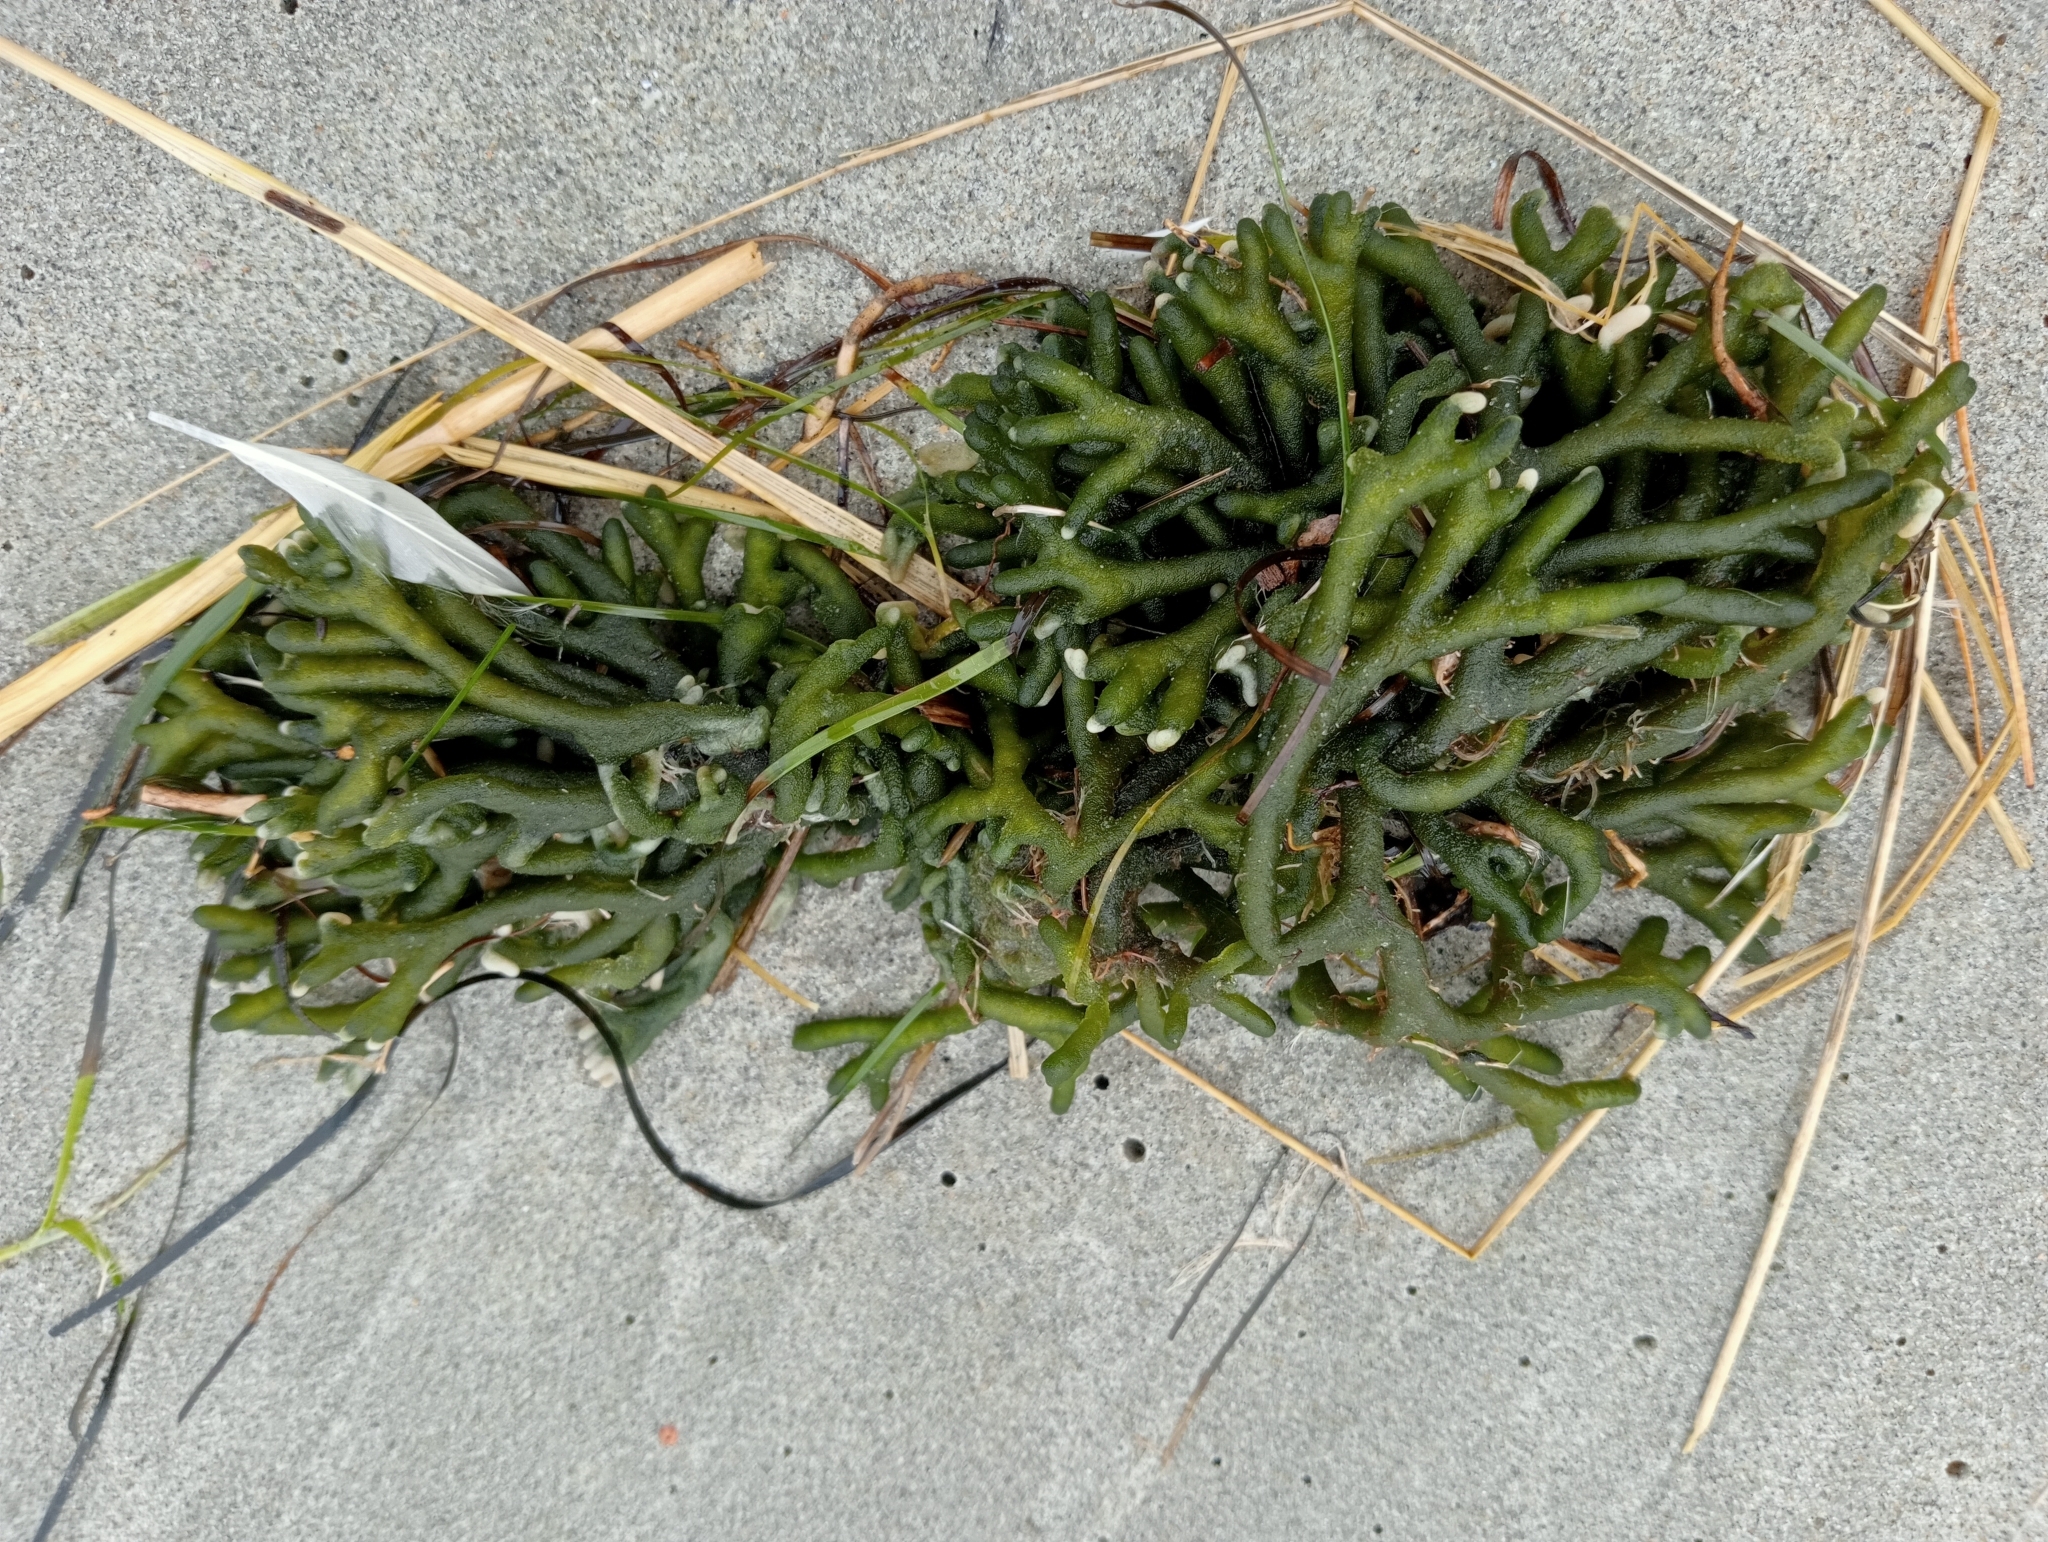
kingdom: Plantae
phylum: Chlorophyta
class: Ulvophyceae
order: Bryopsidales
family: Codiaceae
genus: Codium
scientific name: Codium fragile
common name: Dead man's fingers
